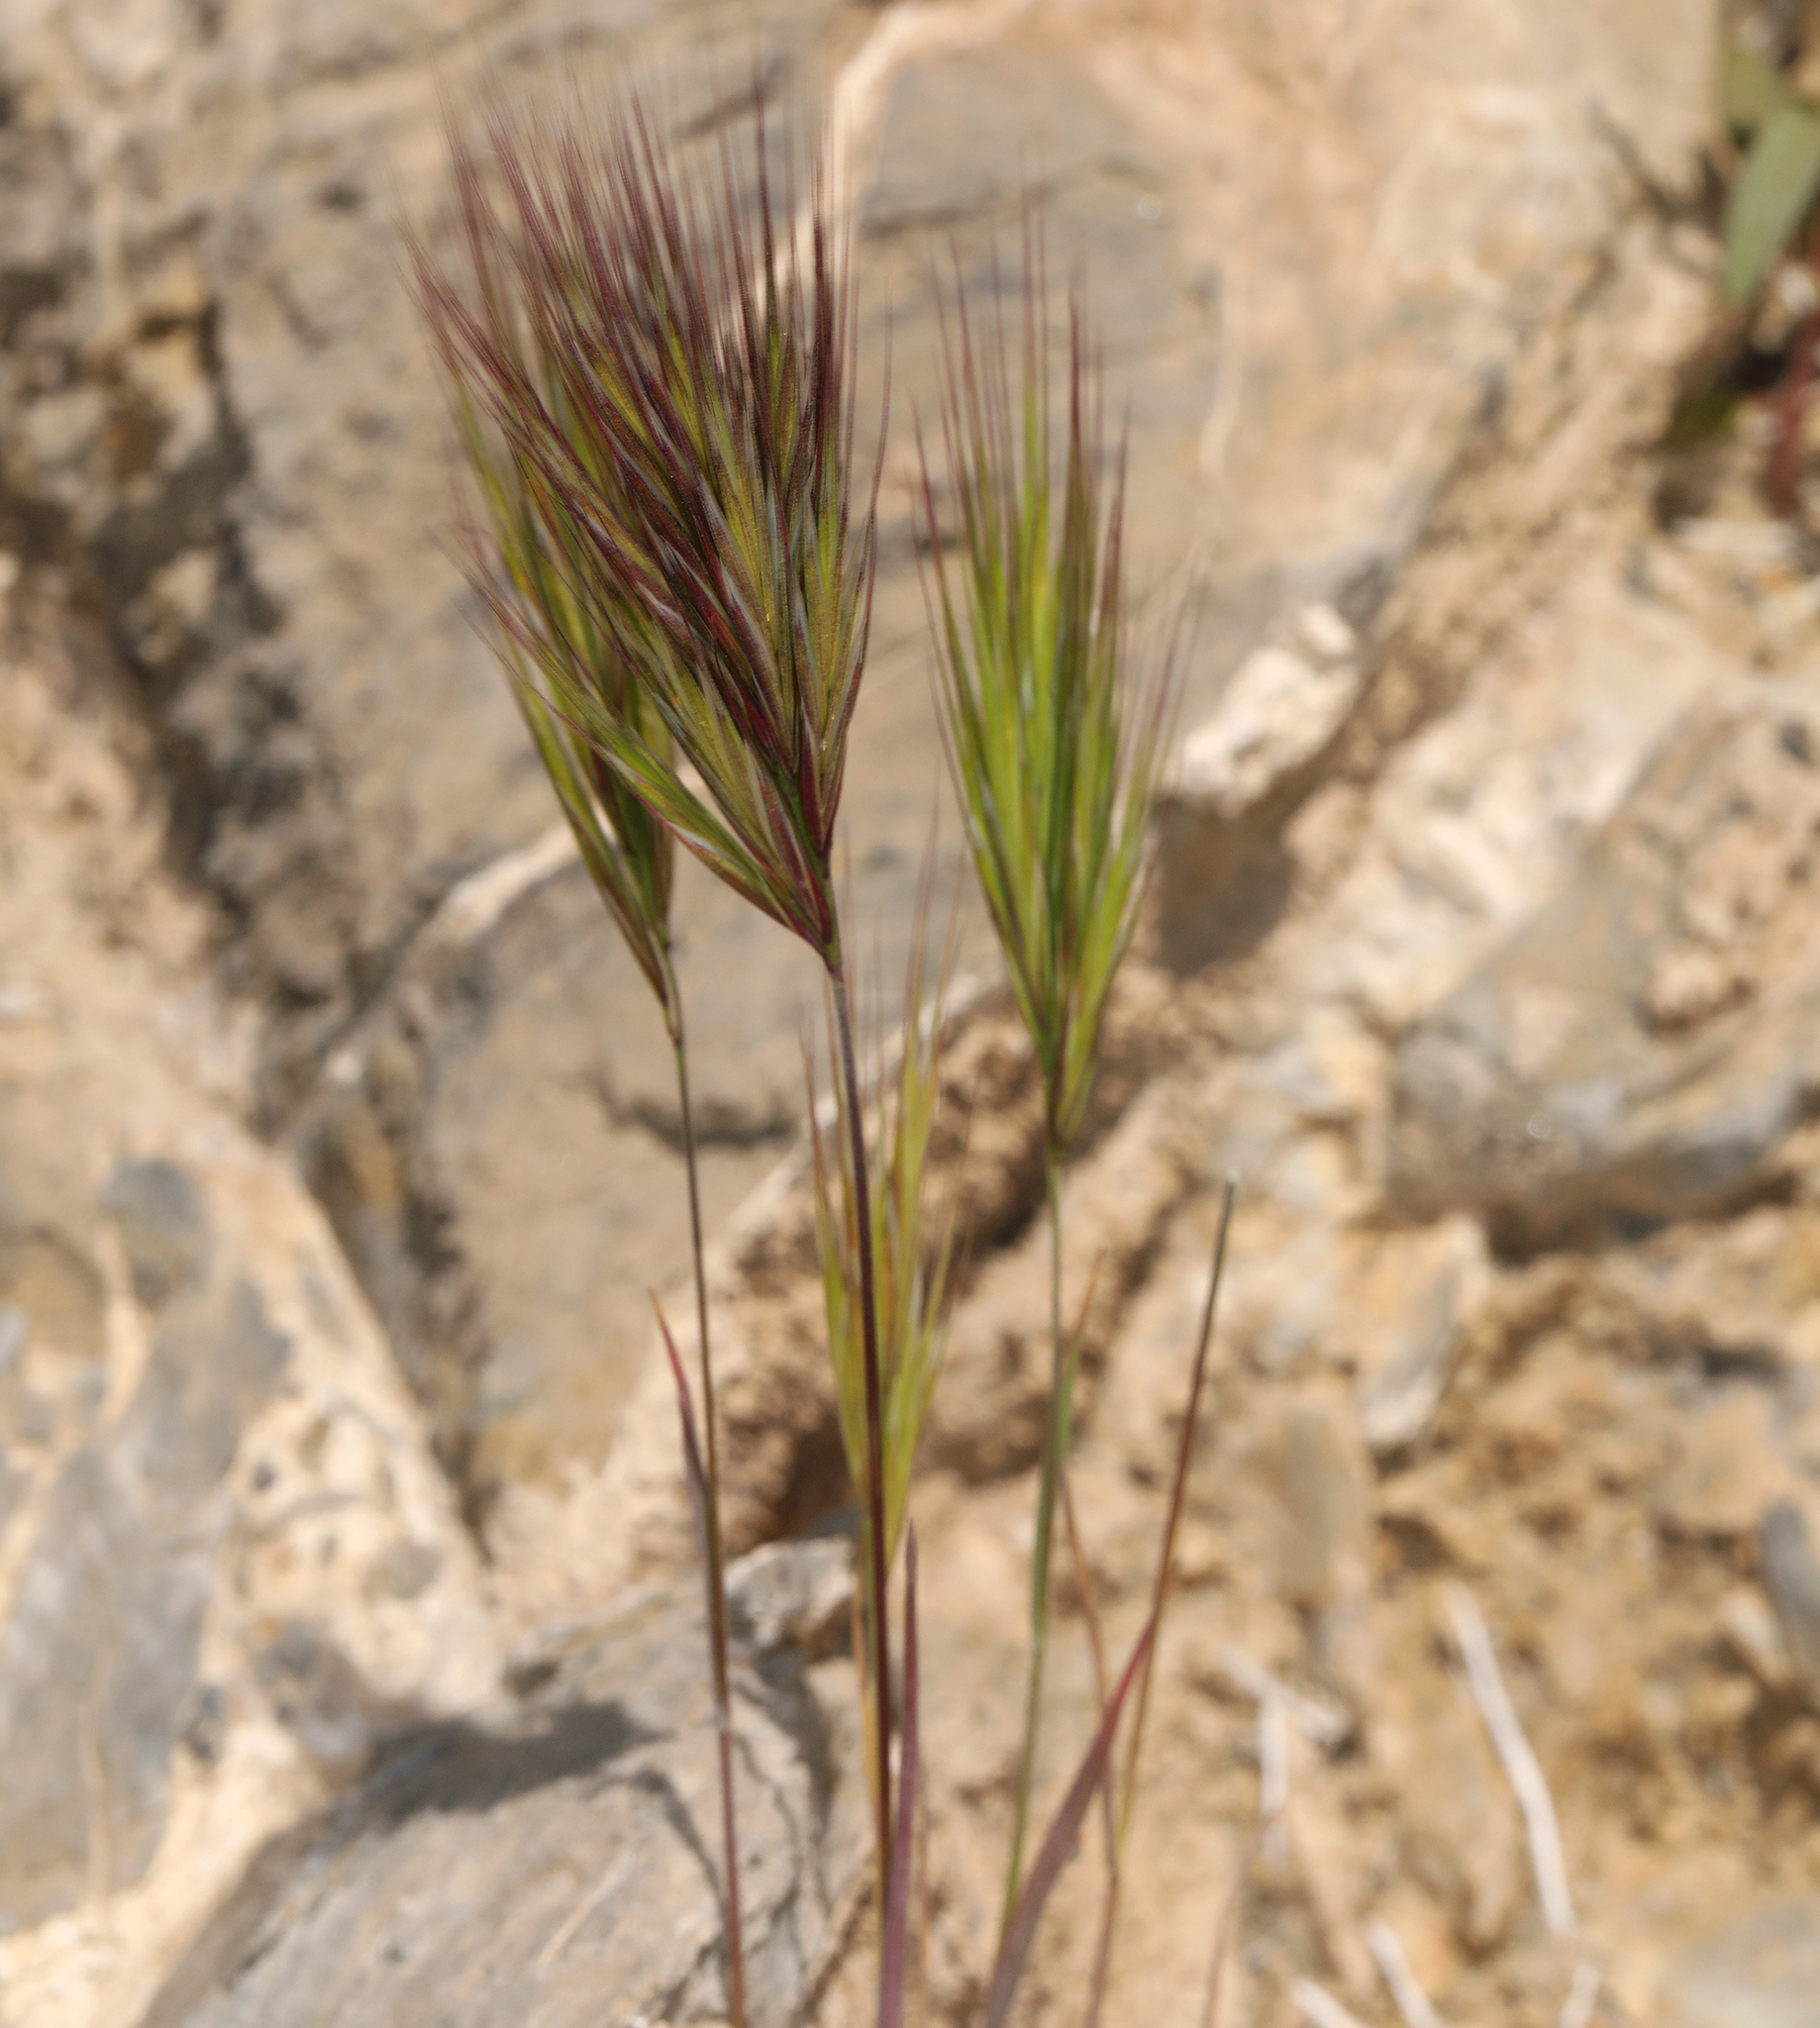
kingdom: Plantae
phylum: Tracheophyta
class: Liliopsida
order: Poales
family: Poaceae
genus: Bromus
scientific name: Bromus rubens
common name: Red brome
